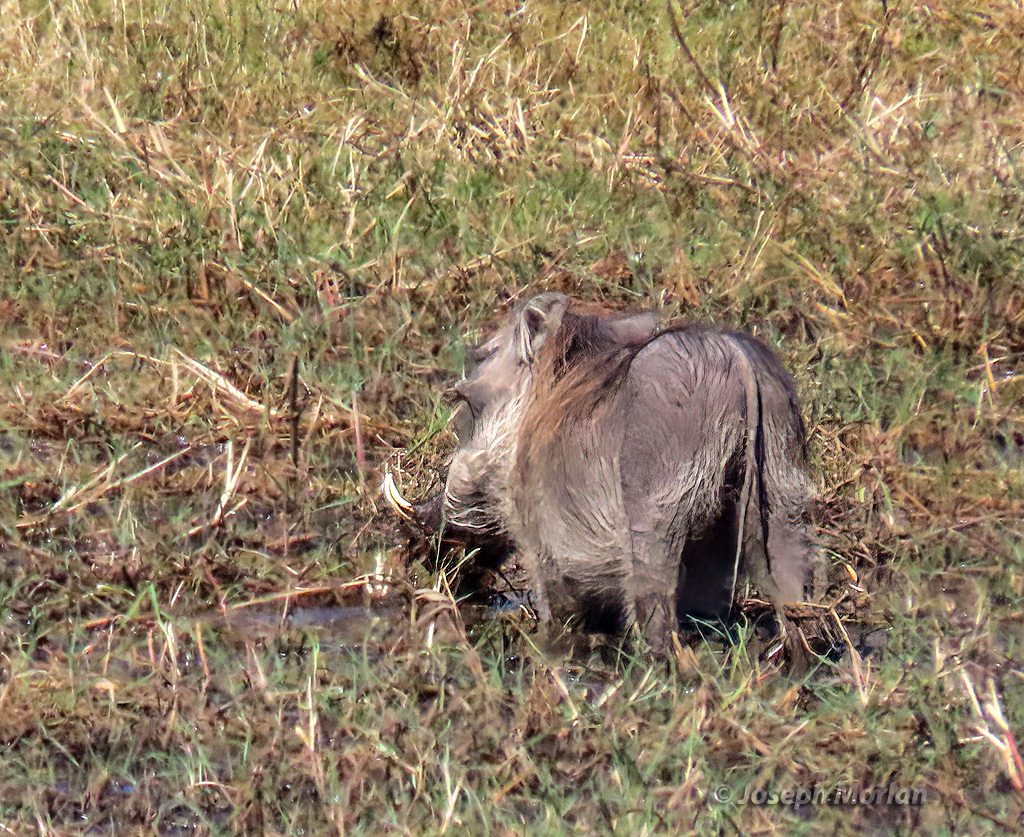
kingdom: Animalia
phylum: Chordata
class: Mammalia
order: Artiodactyla
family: Suidae
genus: Phacochoerus
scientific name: Phacochoerus africanus
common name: Common warthog
